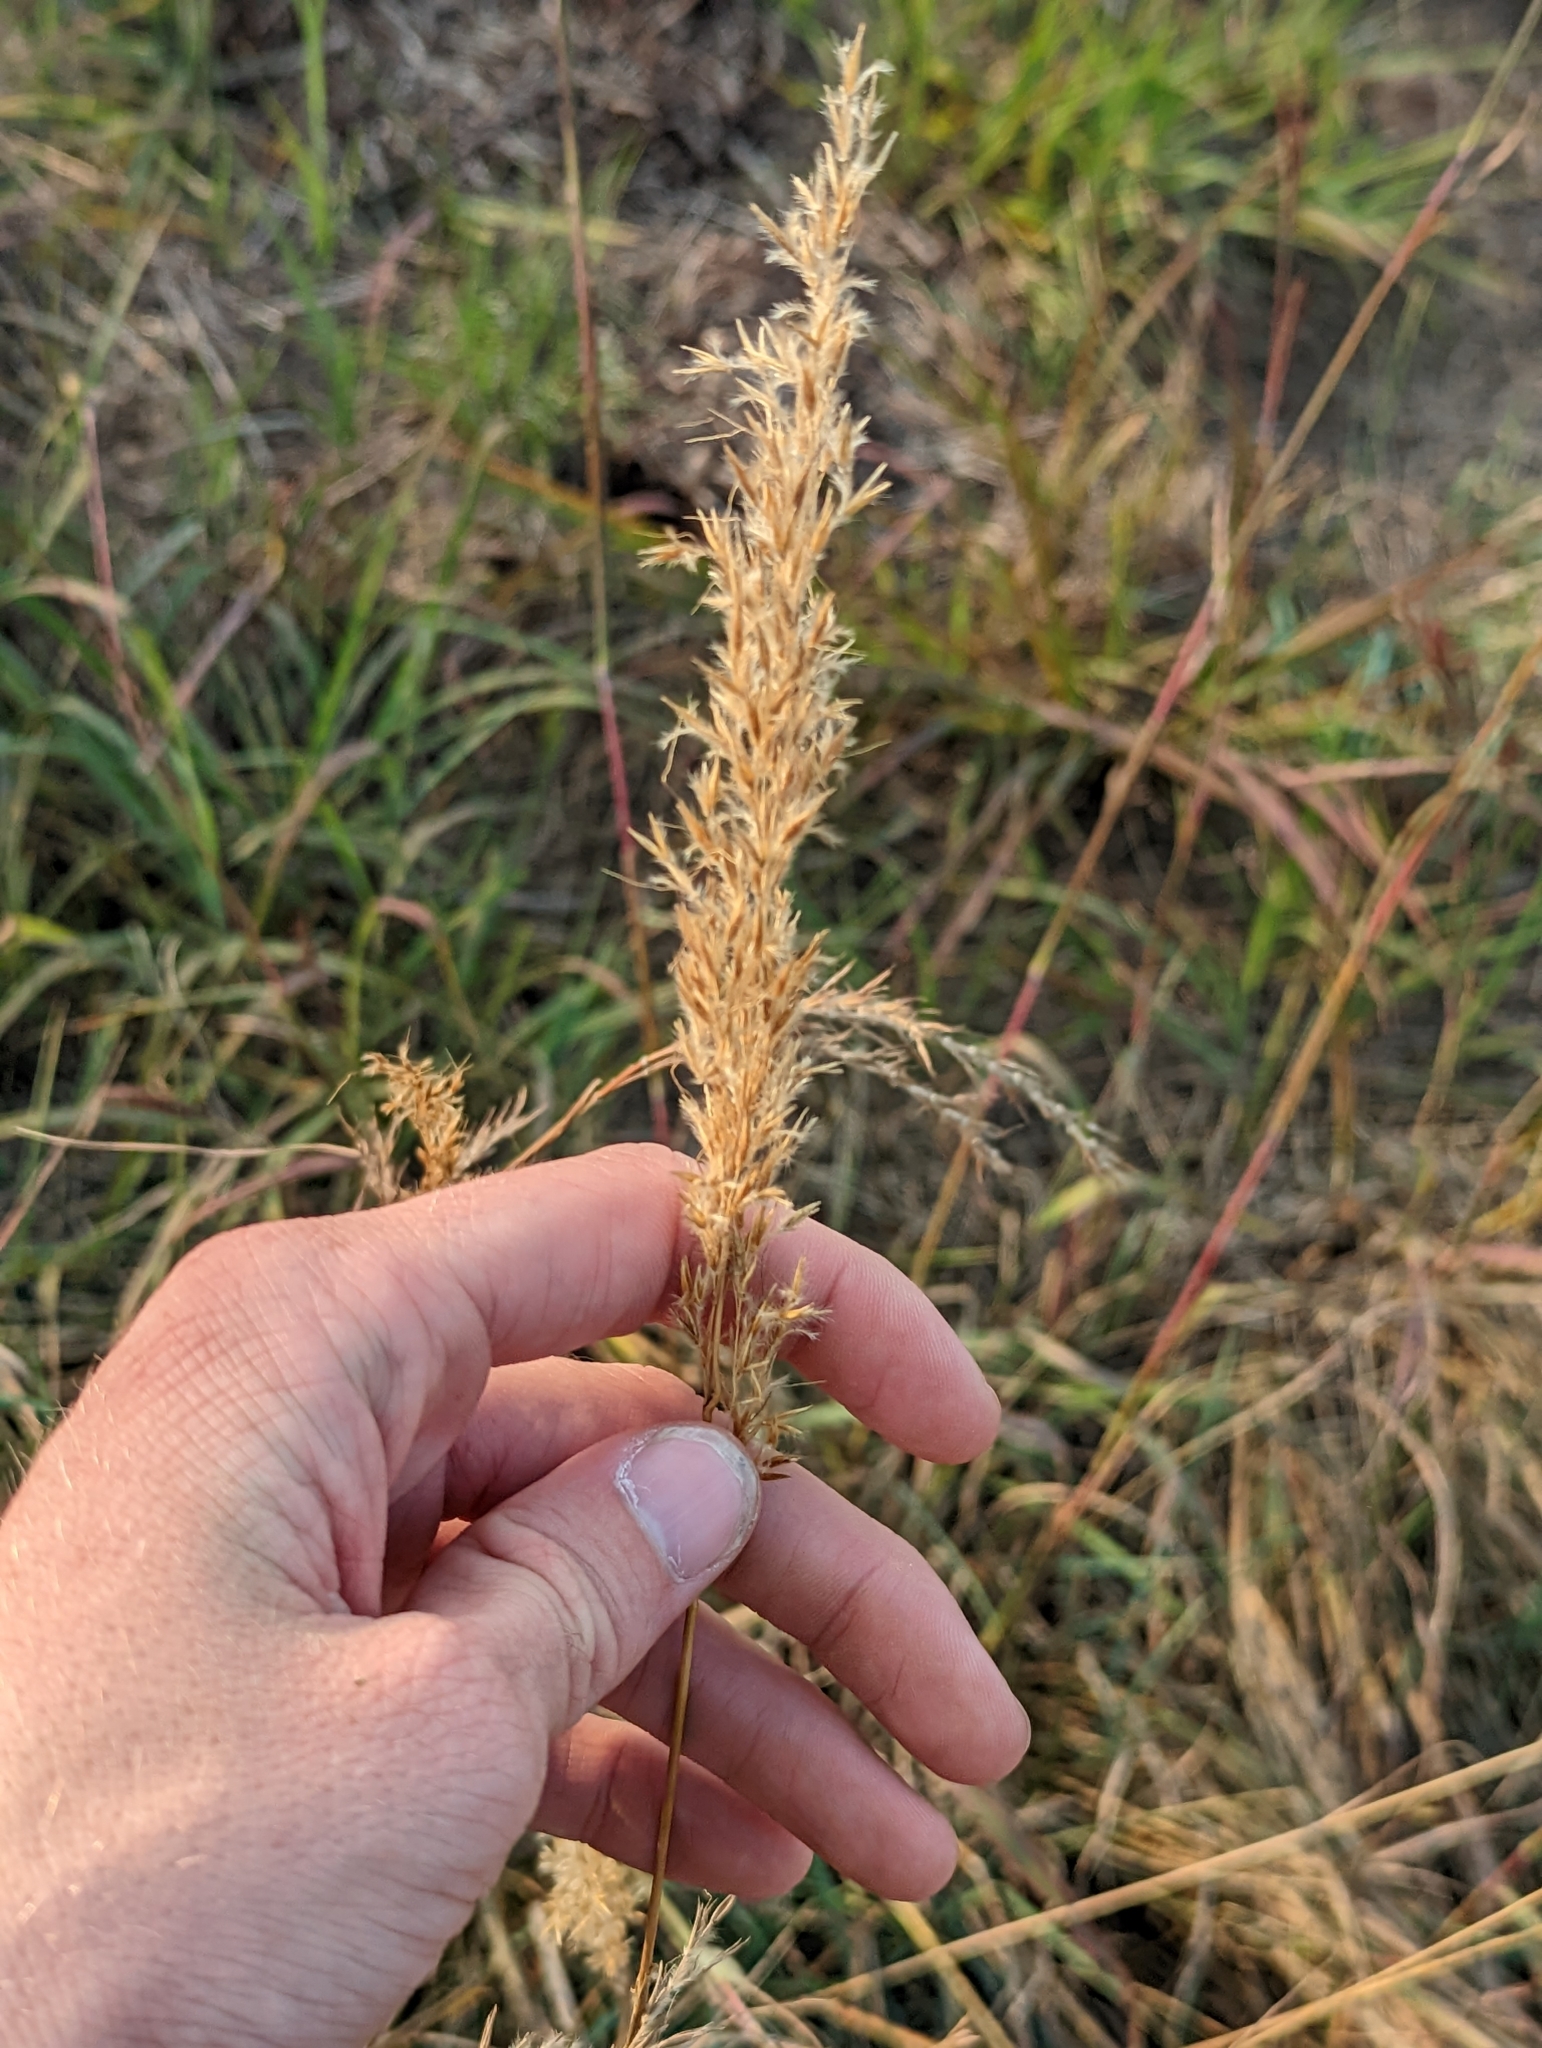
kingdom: Plantae
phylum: Tracheophyta
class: Liliopsida
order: Poales
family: Poaceae
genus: Sorghastrum
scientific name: Sorghastrum nutans
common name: Indian grass
